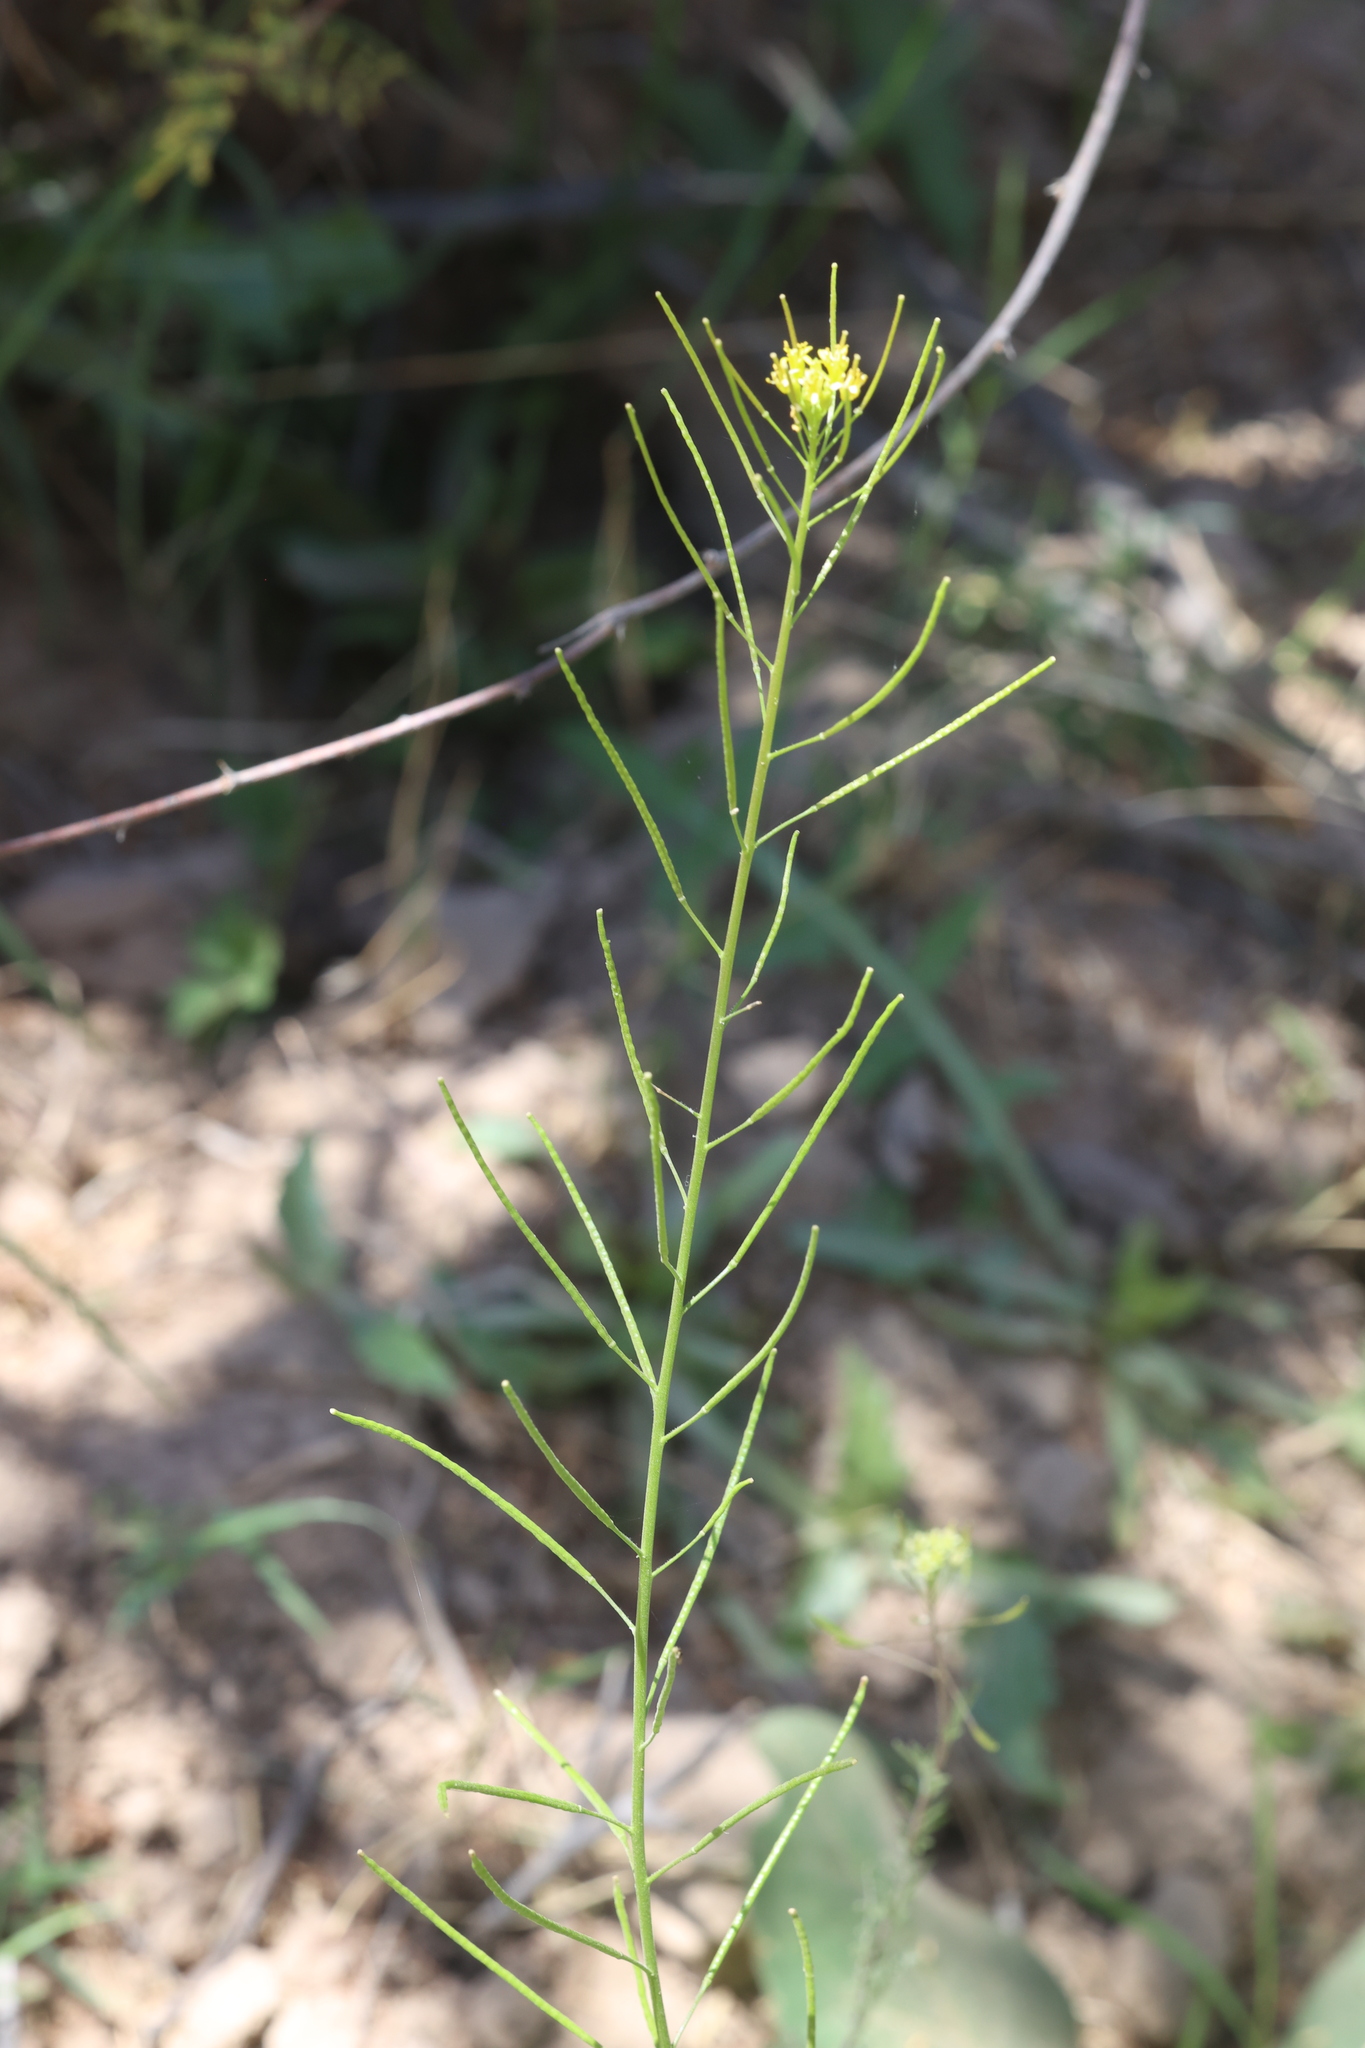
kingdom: Plantae
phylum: Tracheophyta
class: Magnoliopsida
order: Brassicales
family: Brassicaceae
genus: Sisymbrium
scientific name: Sisymbrium irio
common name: London rocket
